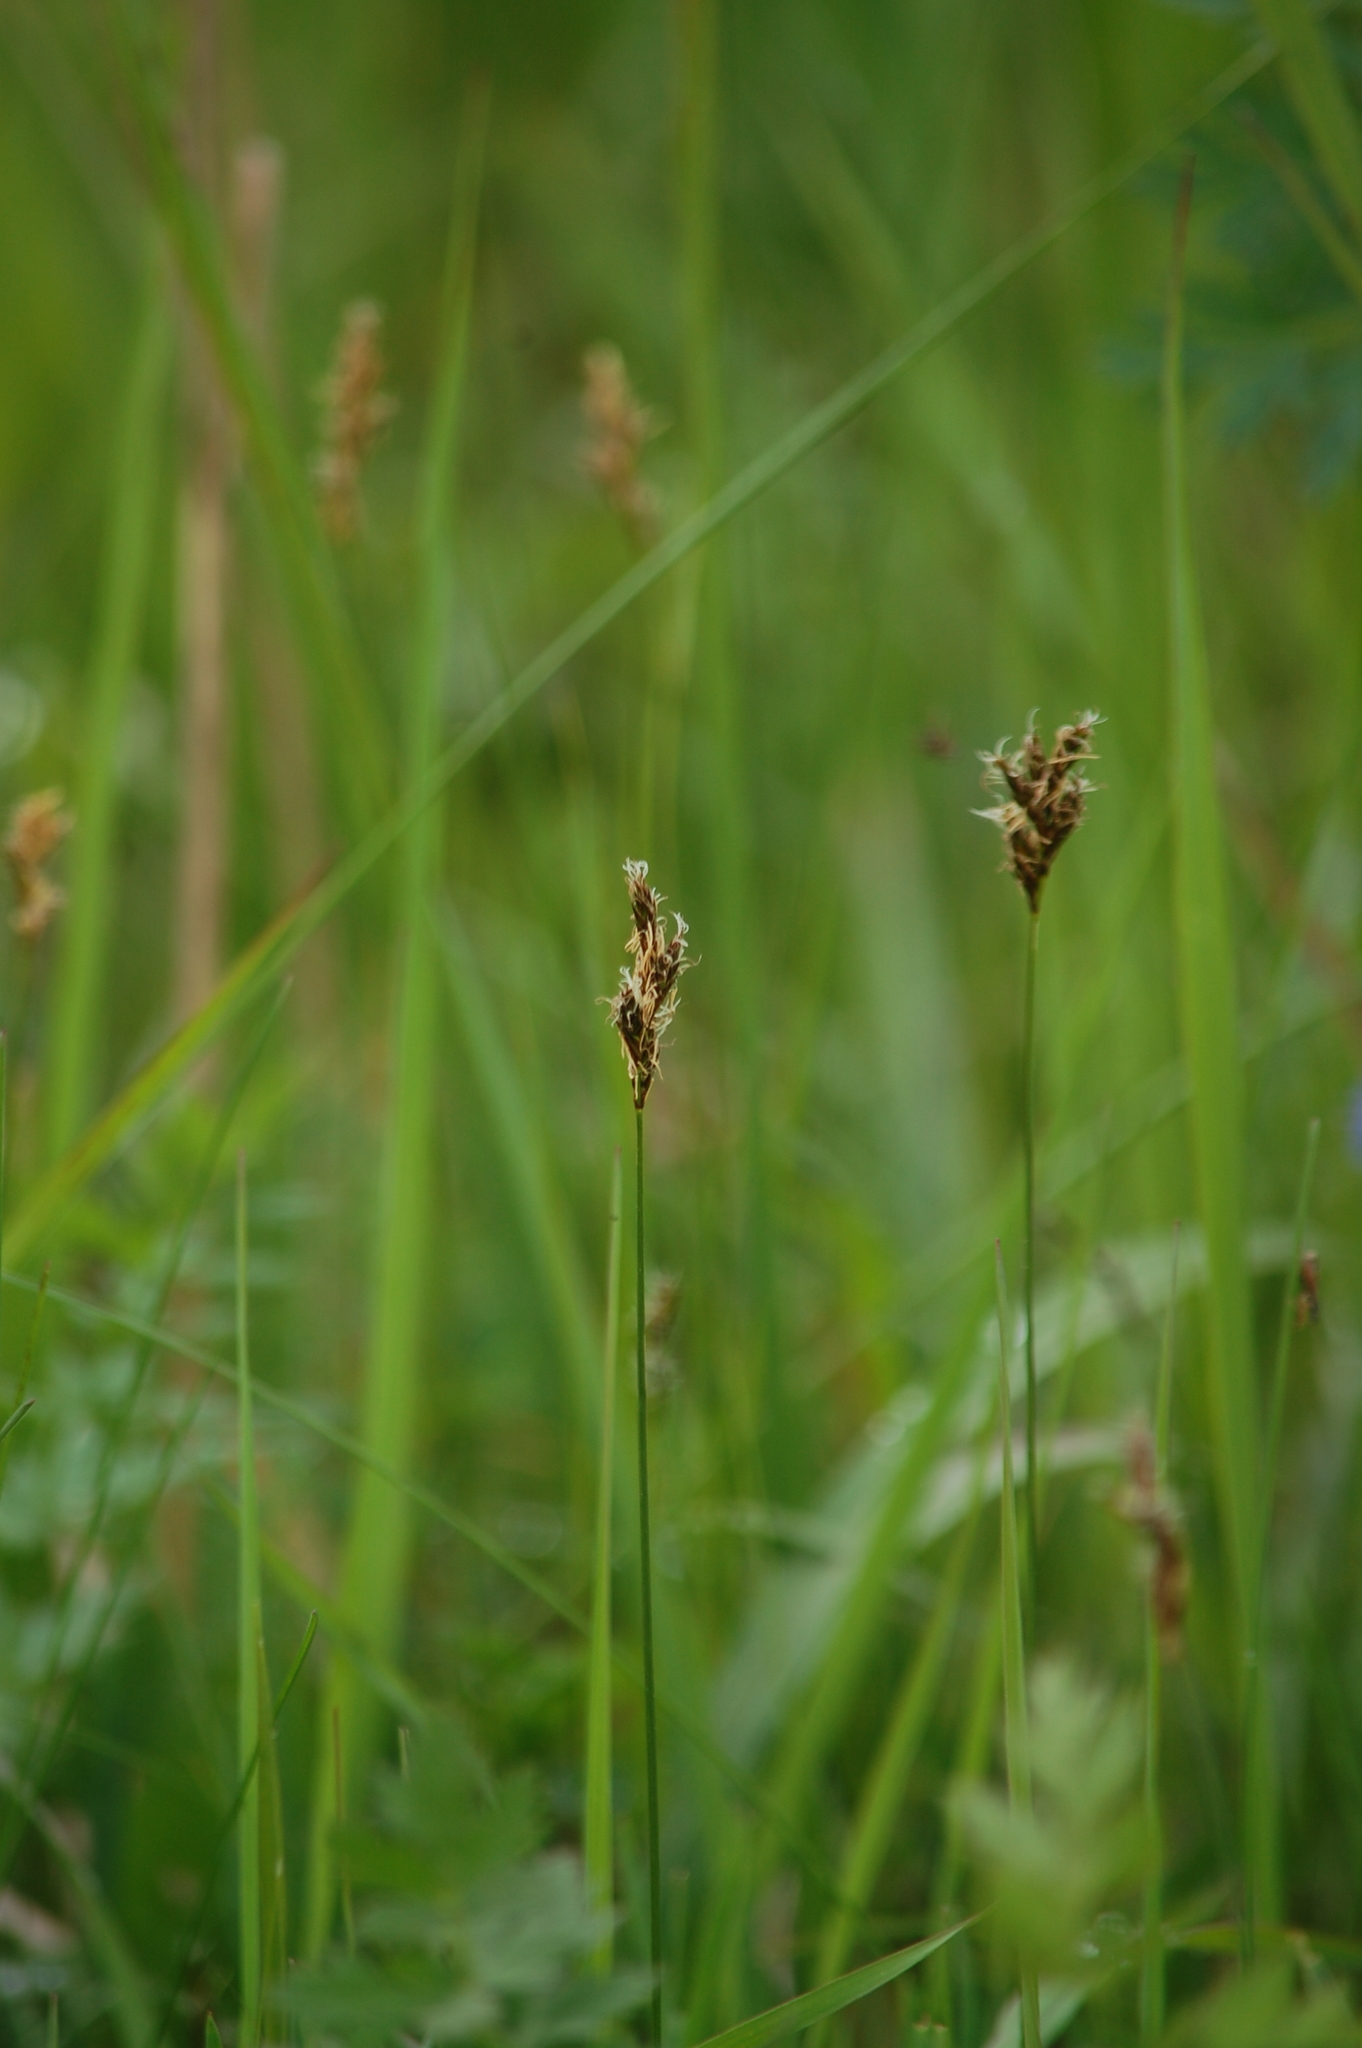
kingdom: Plantae
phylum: Tracheophyta
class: Liliopsida
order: Poales
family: Cyperaceae
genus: Carex
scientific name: Carex praecox
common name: Early sedge
